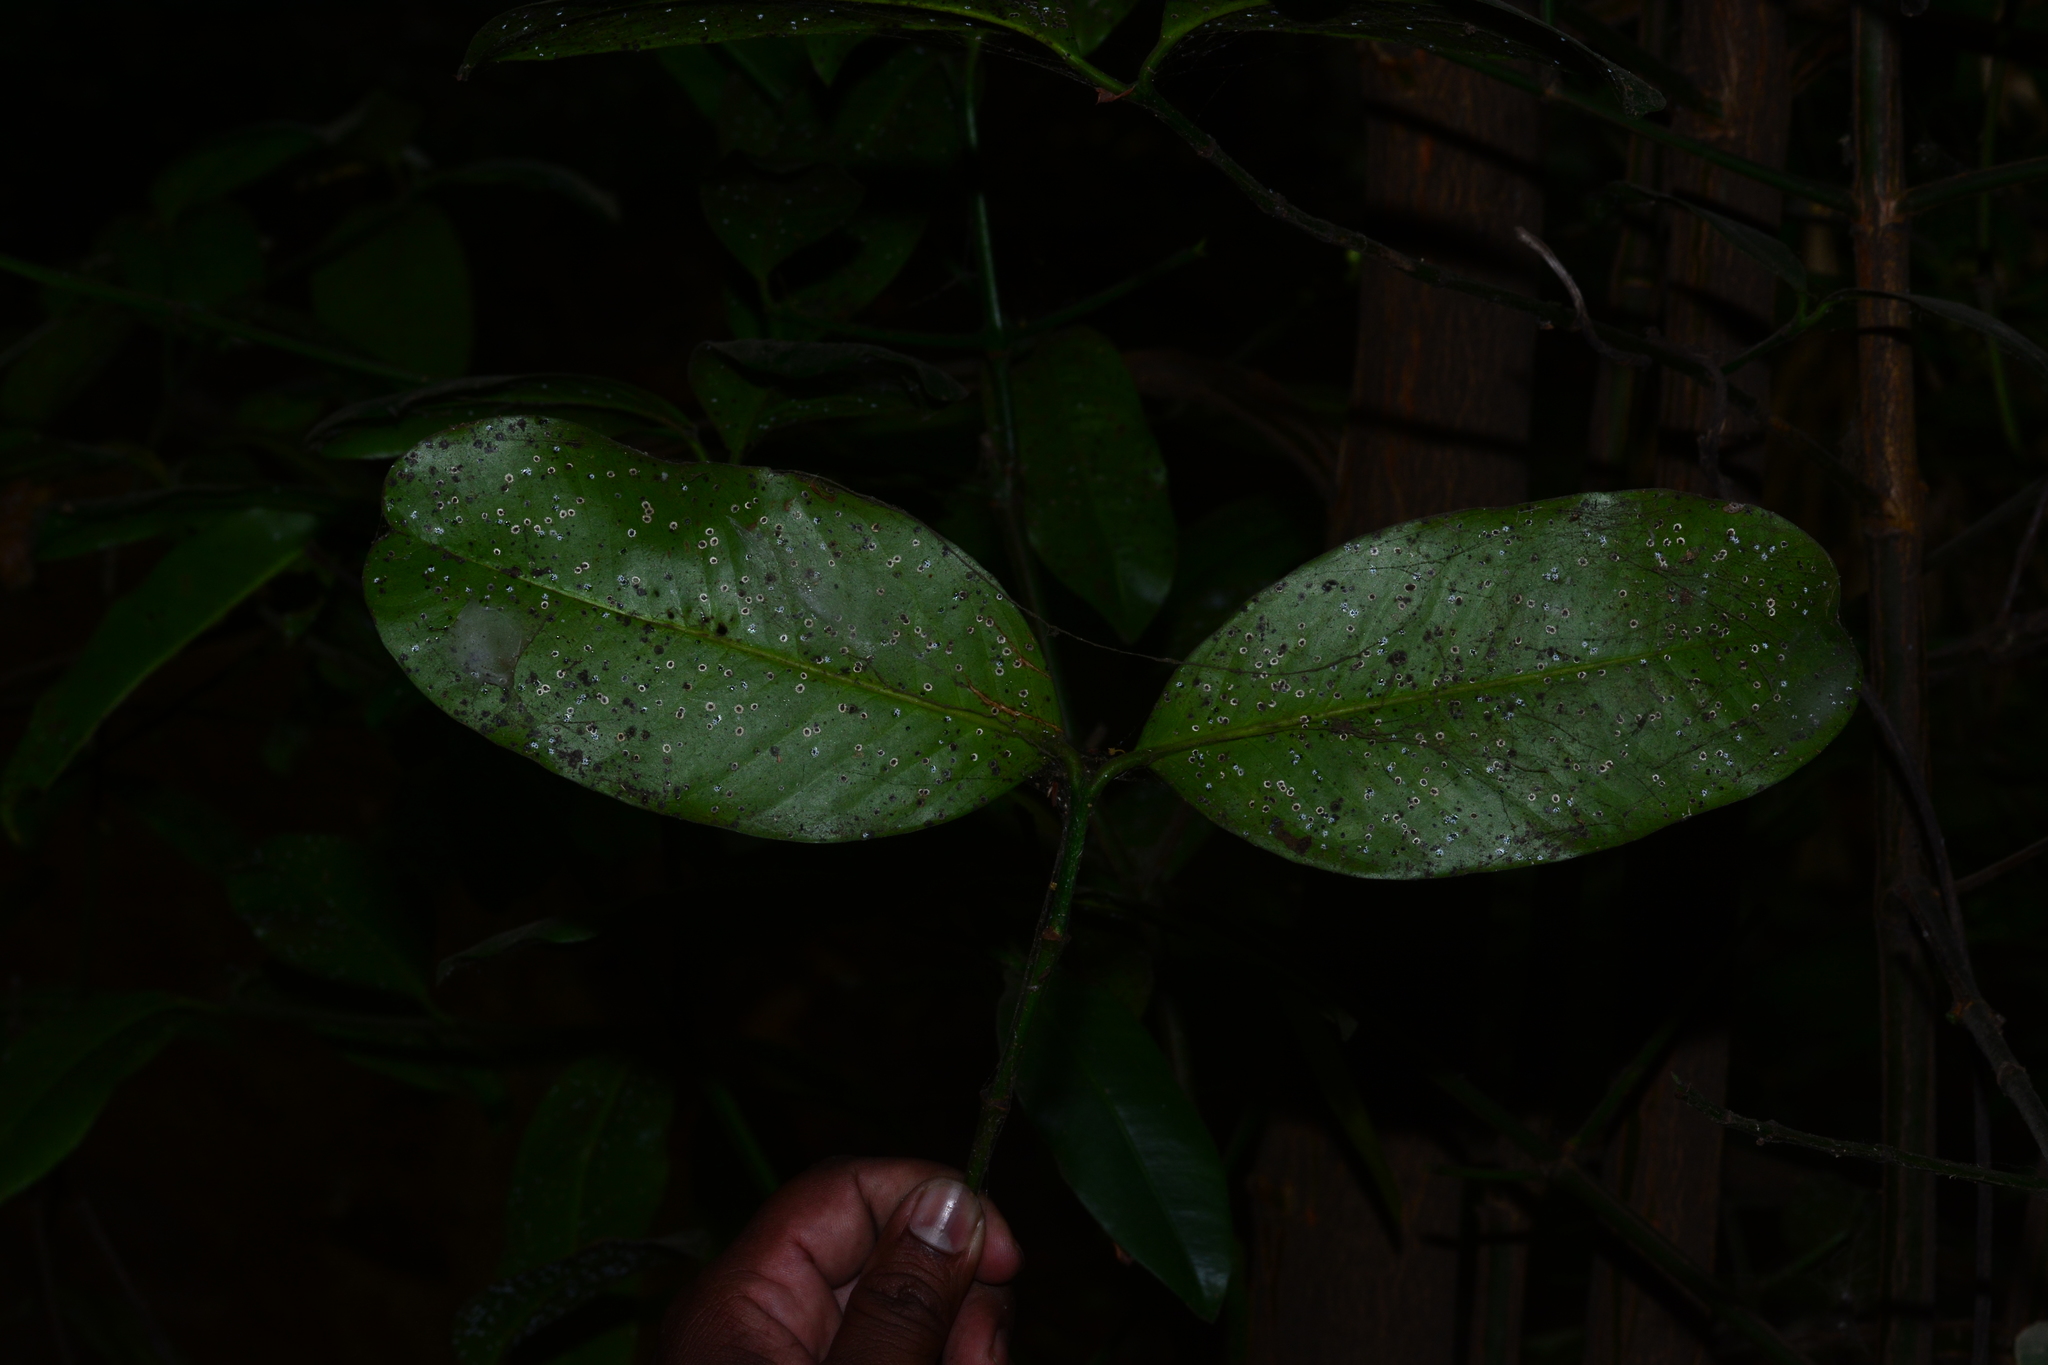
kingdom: Plantae
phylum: Tracheophyta
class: Magnoliopsida
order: Malpighiales
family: Clusiaceae
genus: Garcinia
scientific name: Garcinia talbotii
